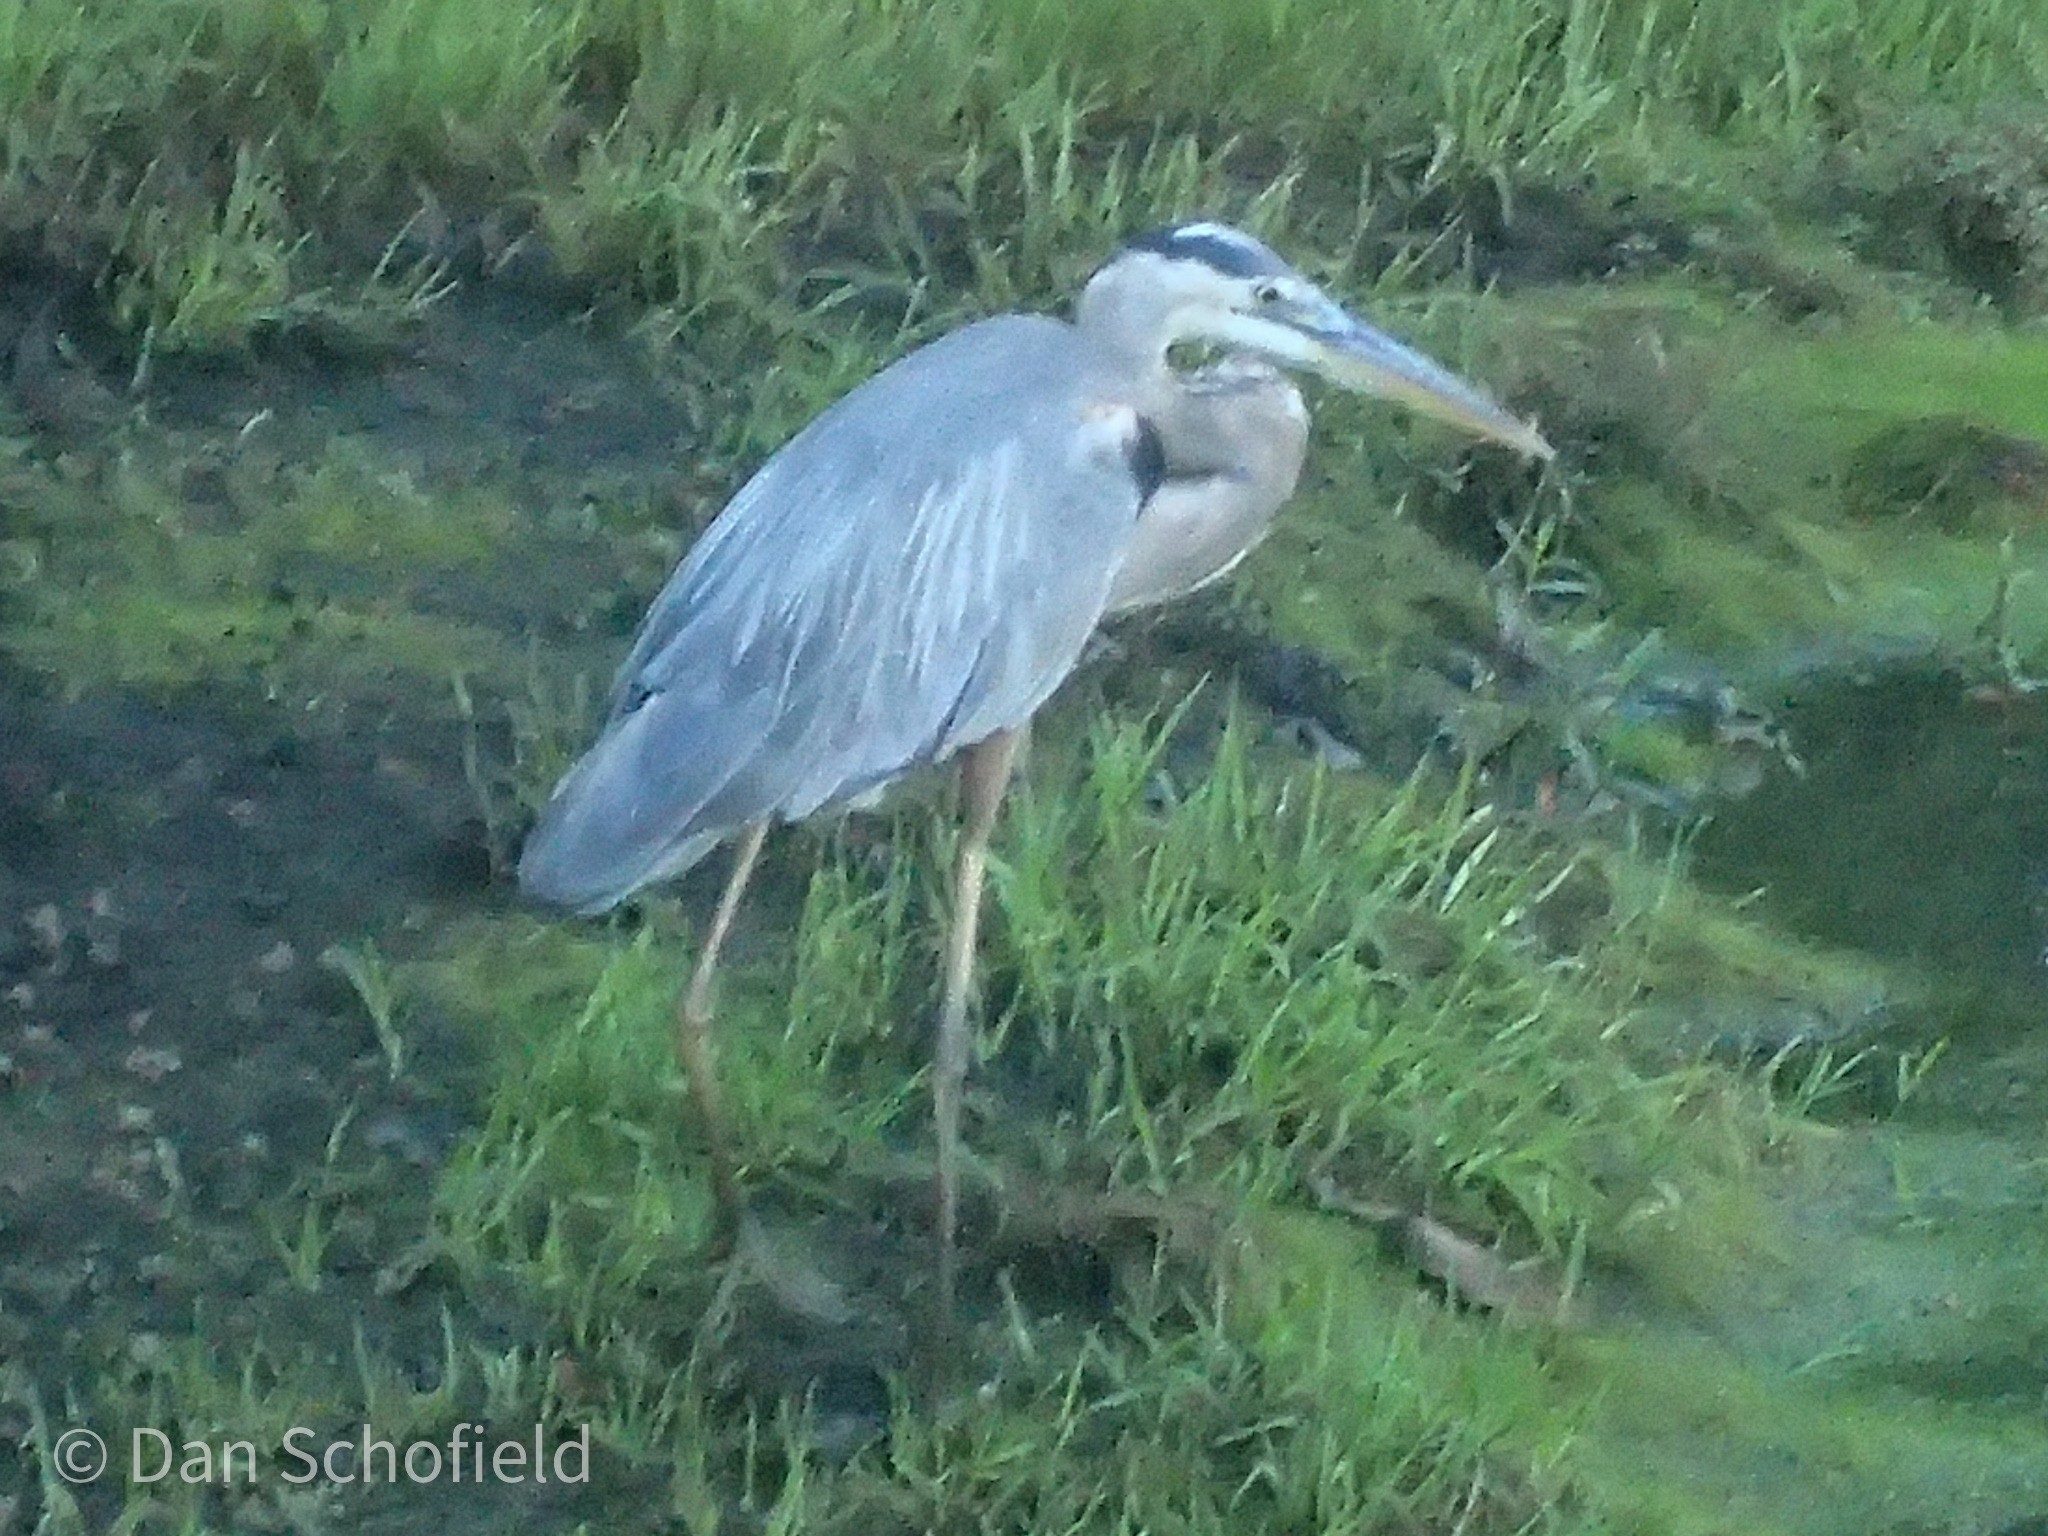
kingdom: Animalia
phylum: Chordata
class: Aves
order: Pelecaniformes
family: Ardeidae
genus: Ardea
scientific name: Ardea herodias
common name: Great blue heron
